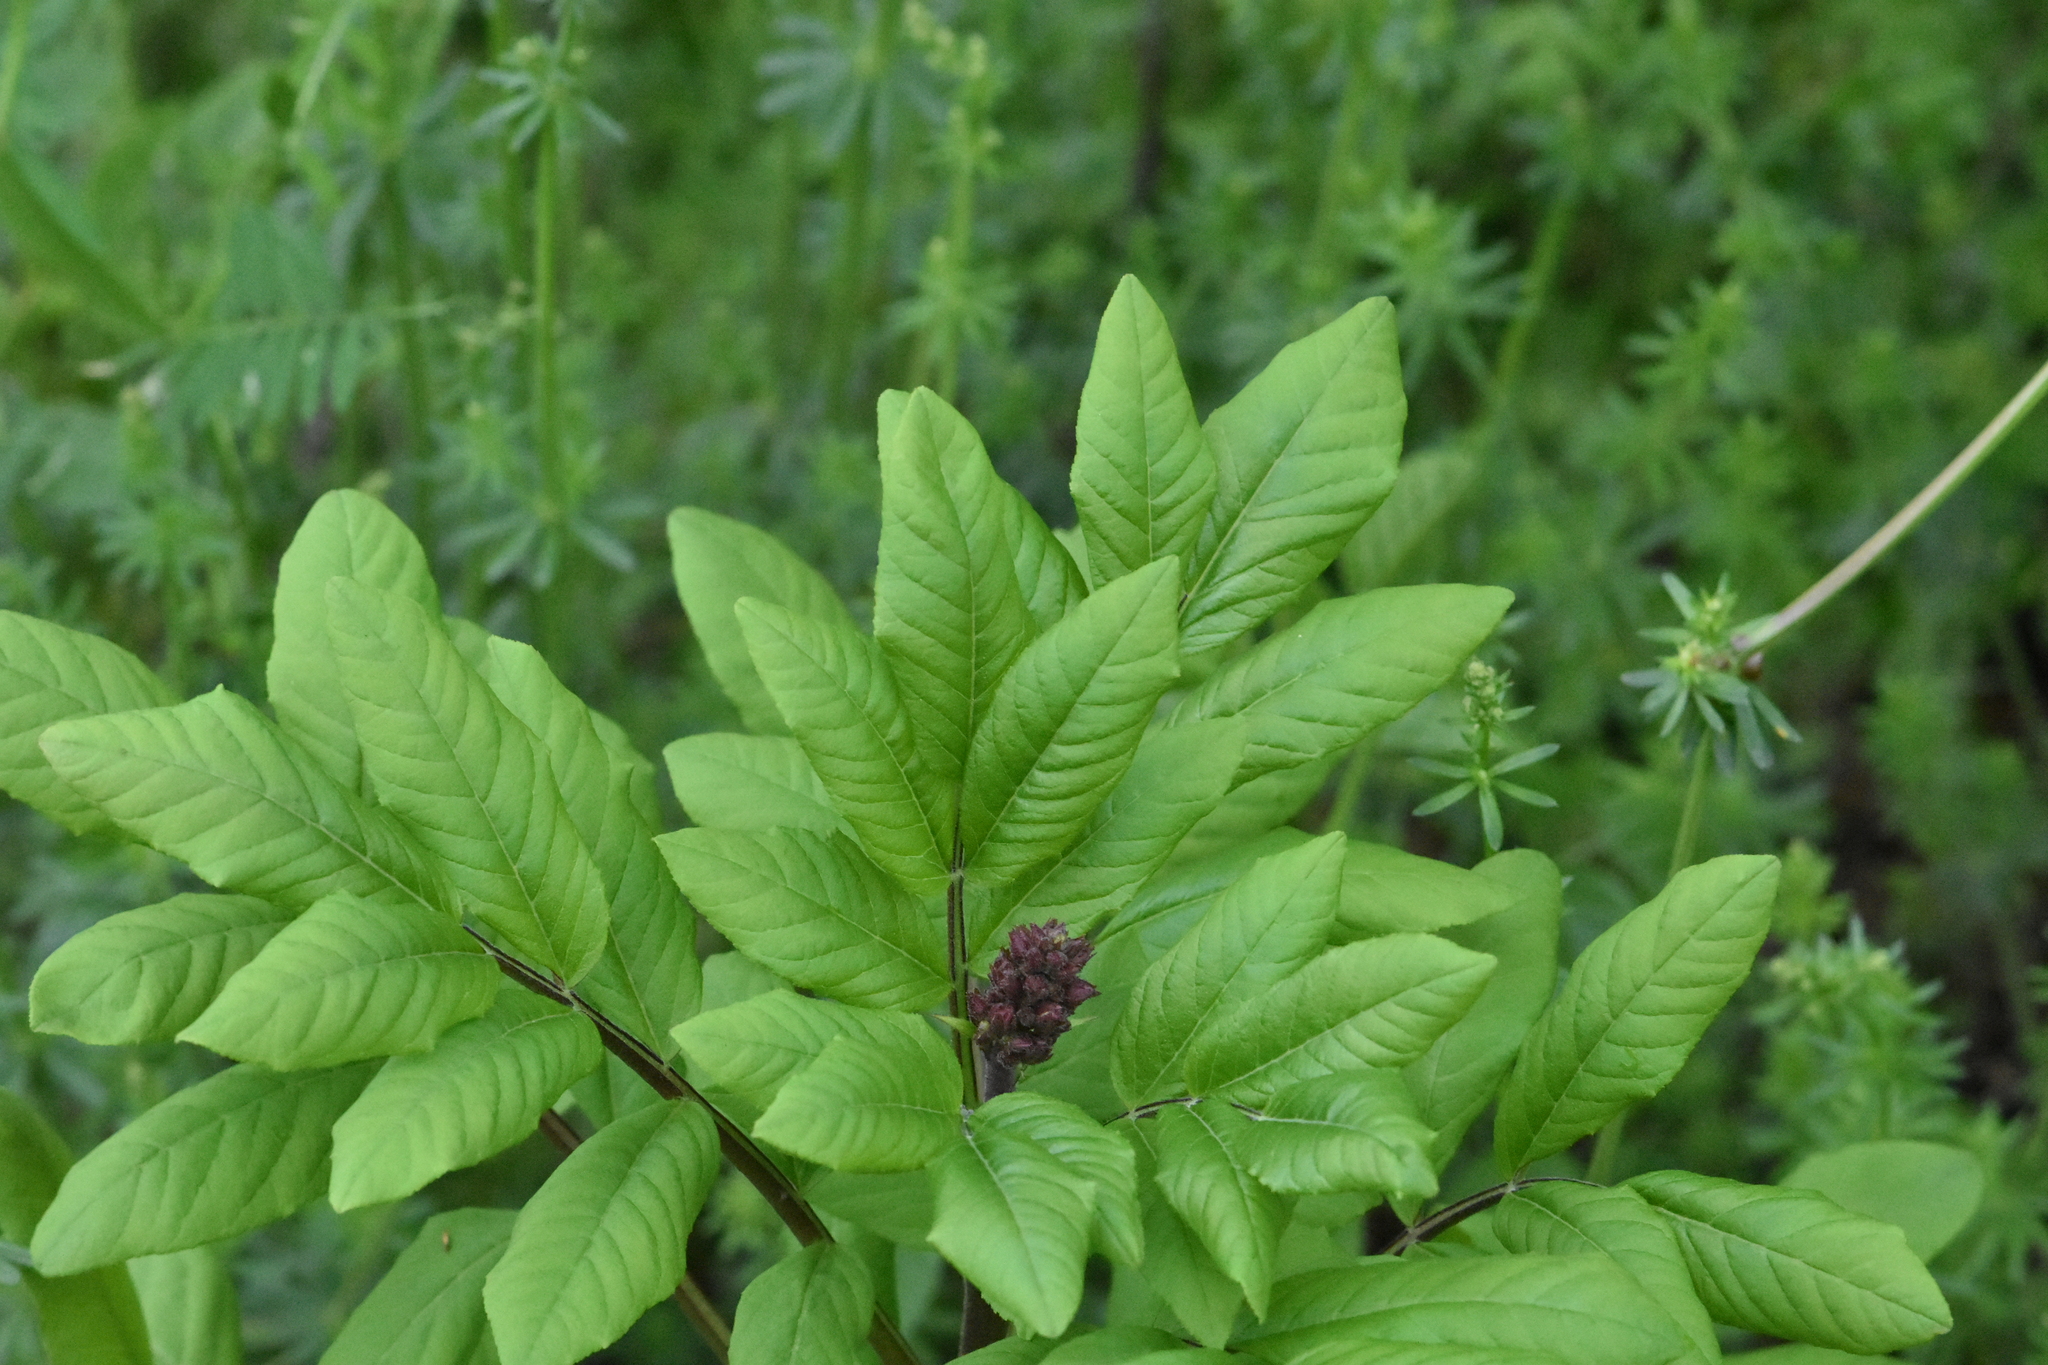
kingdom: Plantae
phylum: Tracheophyta
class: Magnoliopsida
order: Sapindales
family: Rutaceae
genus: Dictamnus
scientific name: Dictamnus albus
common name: Gasplant
